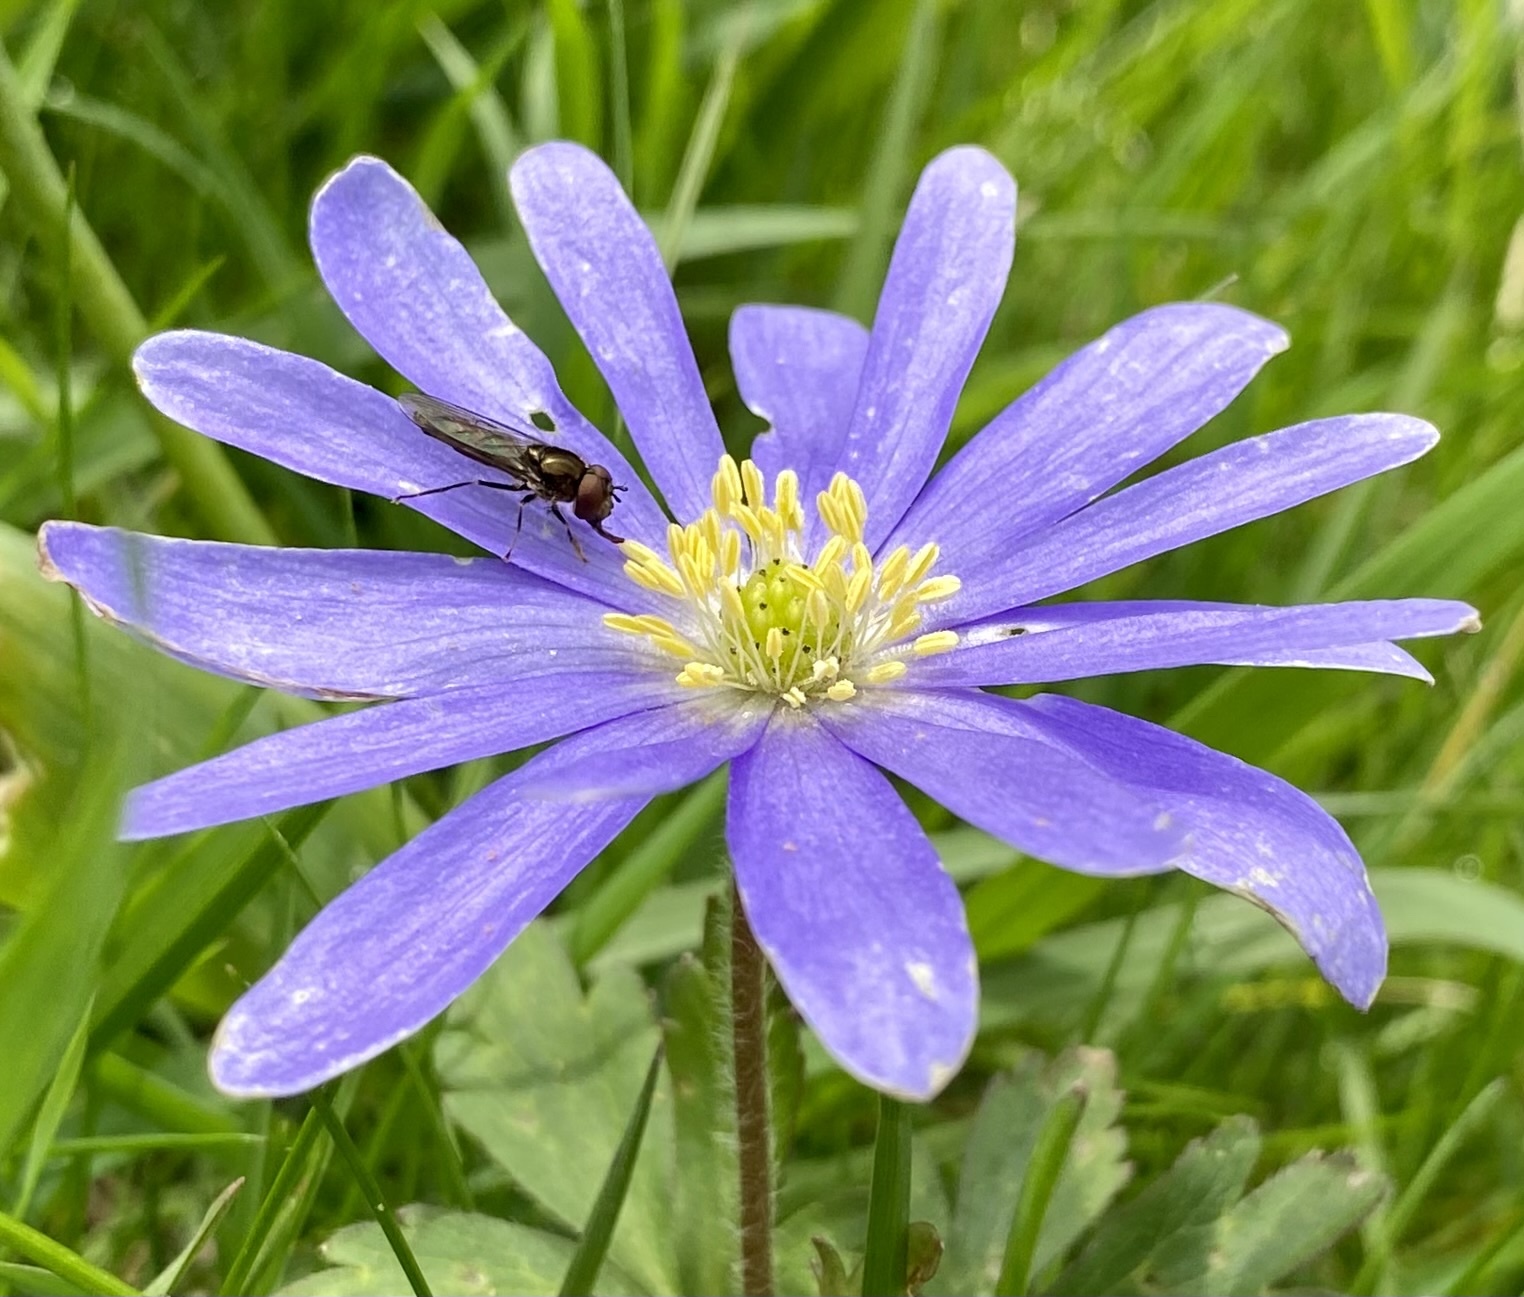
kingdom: Animalia
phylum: Arthropoda
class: Insecta
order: Diptera
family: Syrphidae
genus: Platycheirus
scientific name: Platycheirus albimanus
